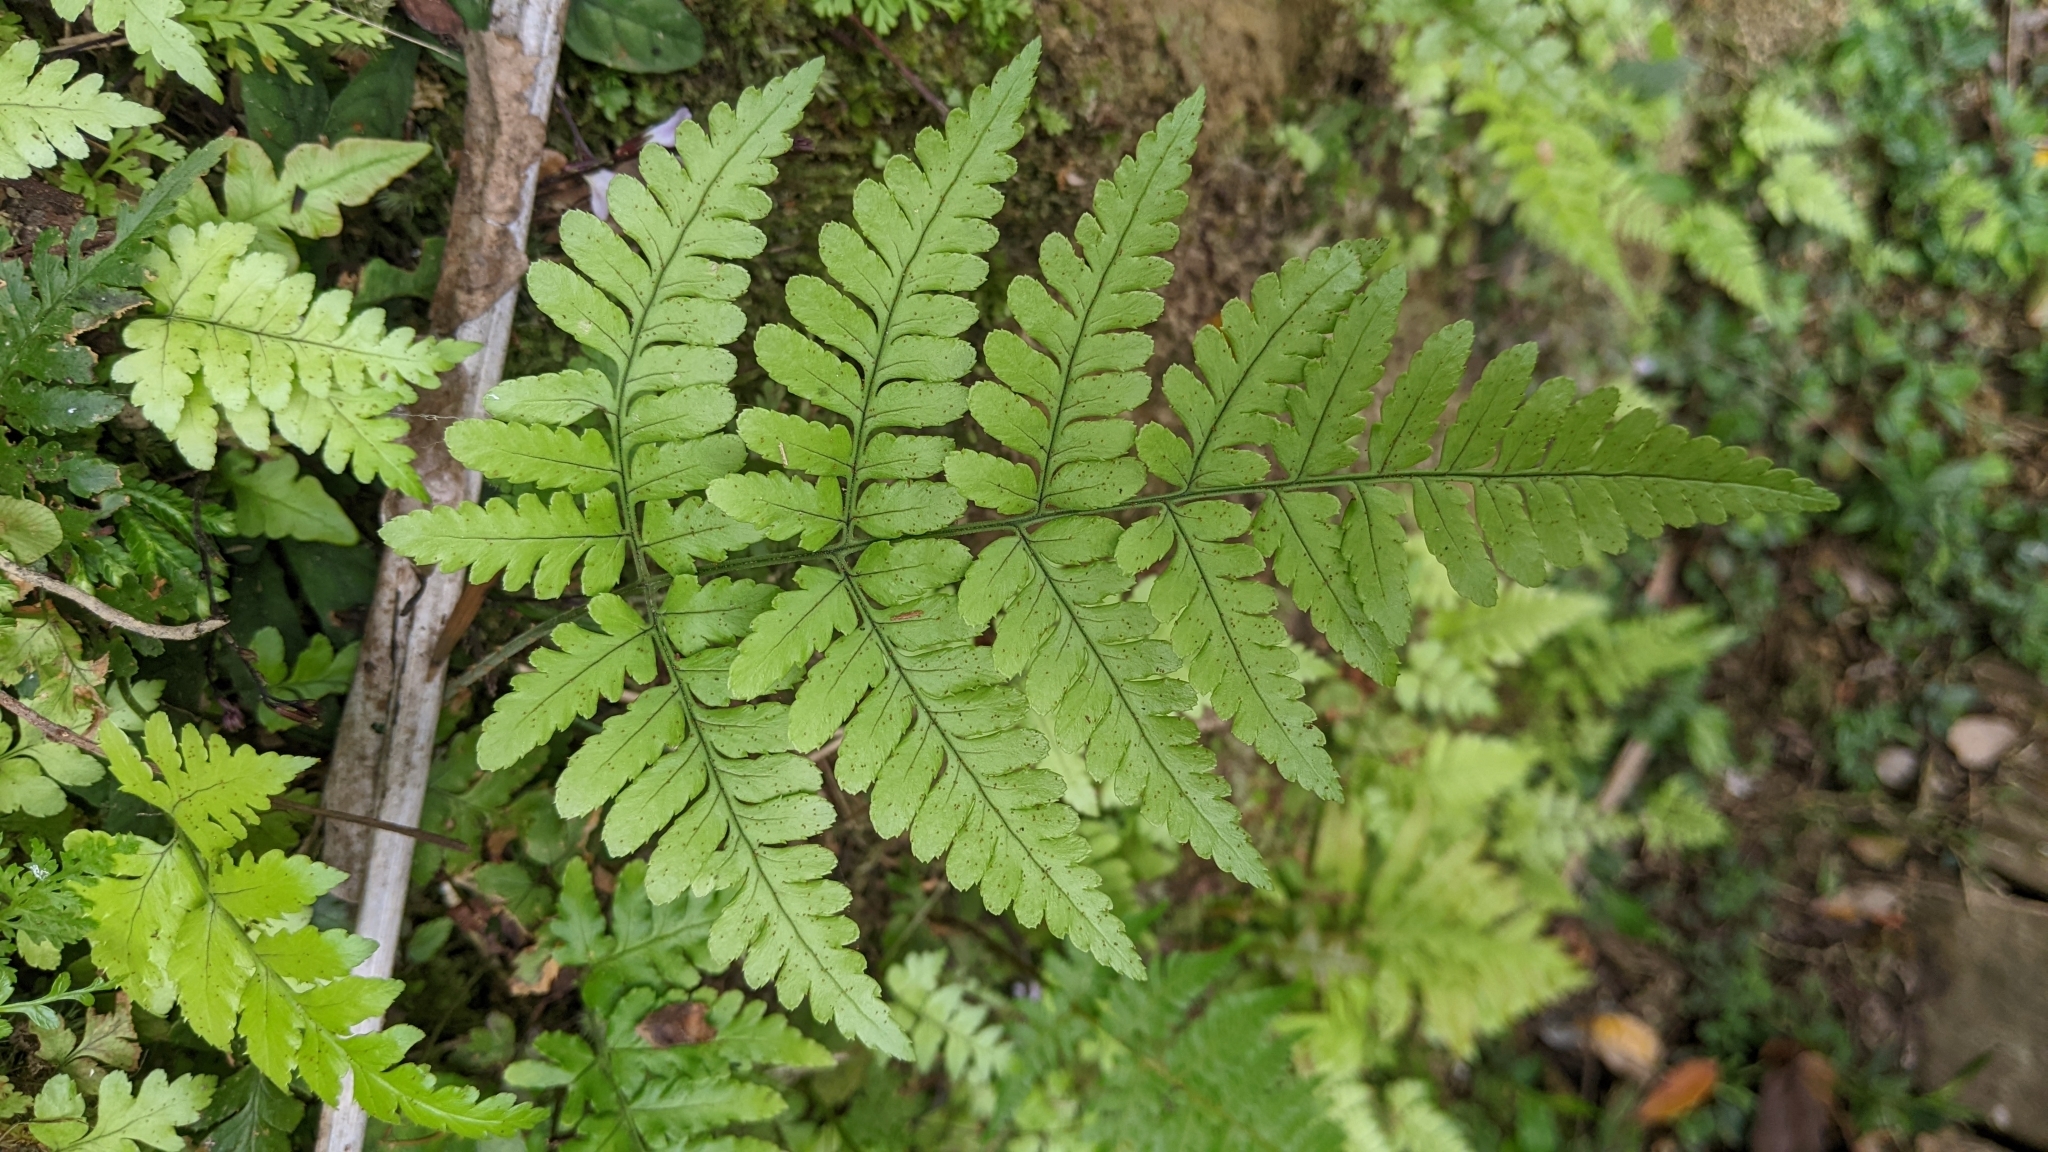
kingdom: Plantae
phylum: Tracheophyta
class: Polypodiopsida
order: Polypodiales
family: Dryopteridaceae
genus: Dryopteris
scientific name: Dryopteris sparsa
